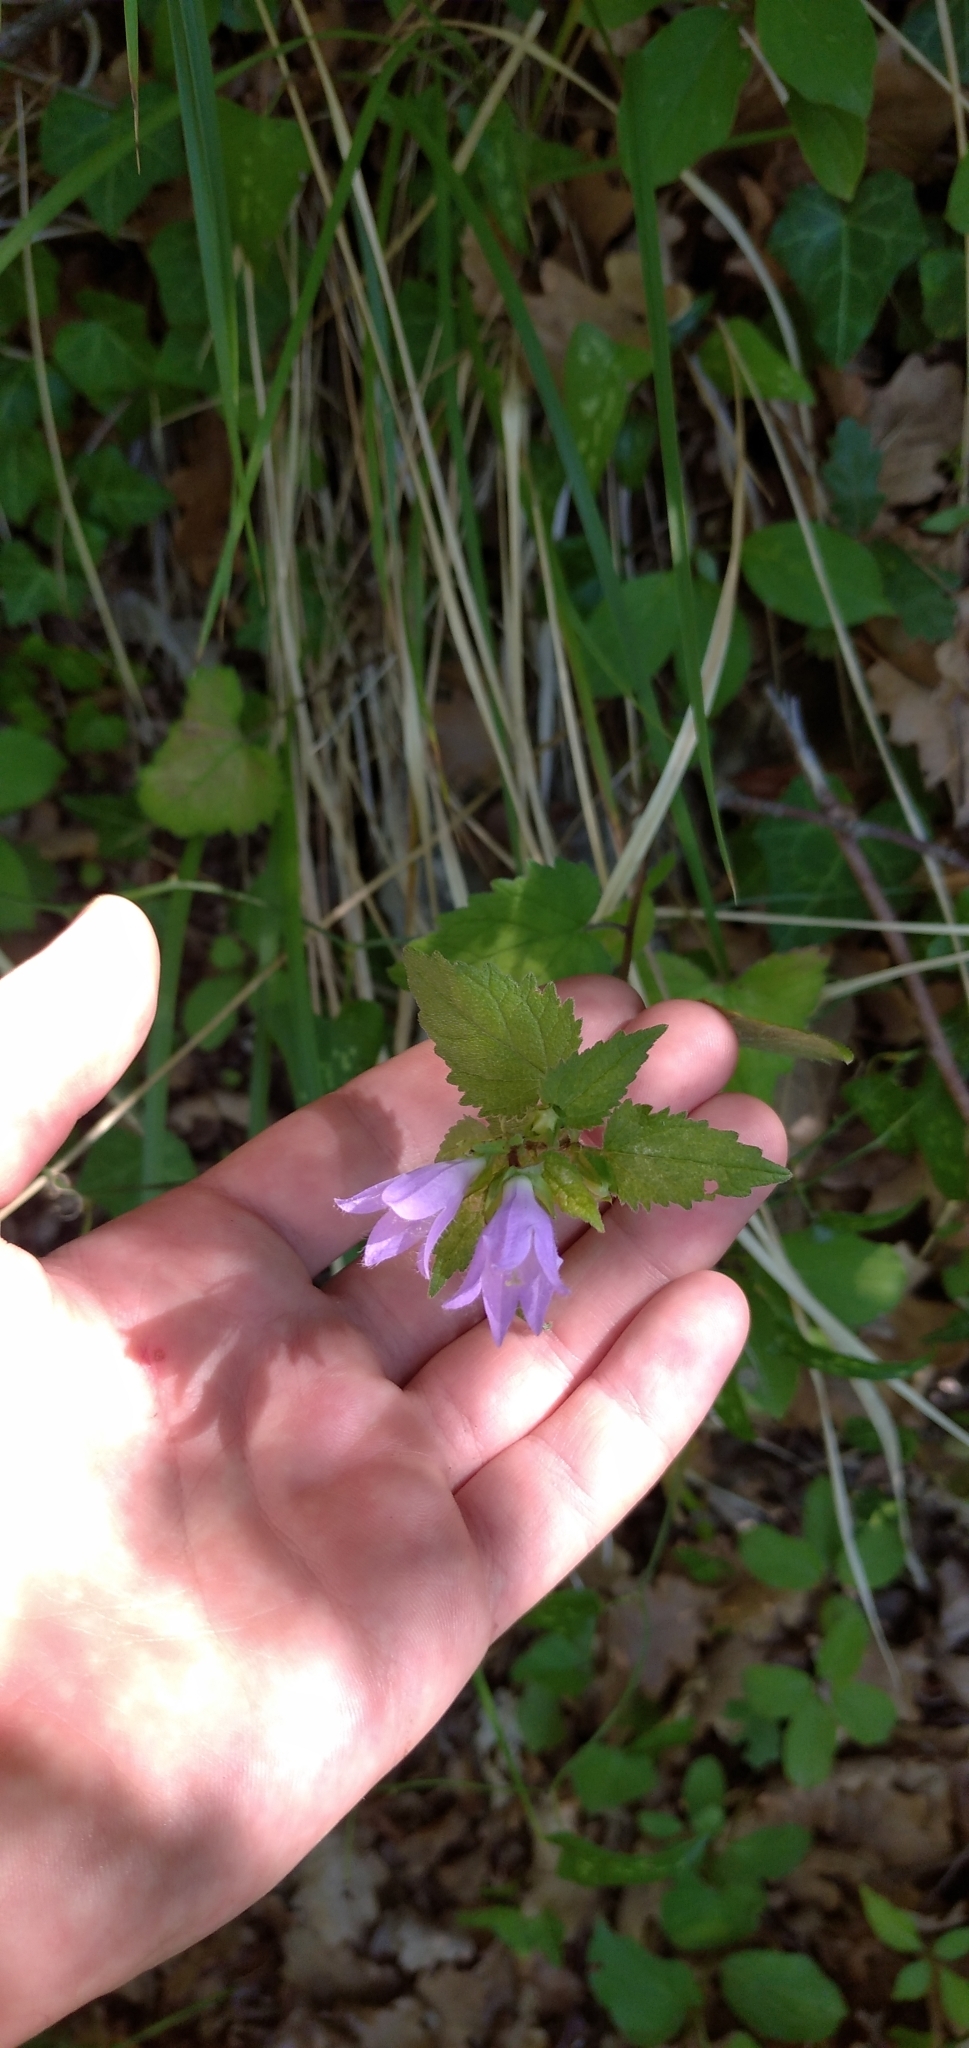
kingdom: Plantae
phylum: Tracheophyta
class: Magnoliopsida
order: Asterales
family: Campanulaceae
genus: Campanula
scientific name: Campanula trachelium
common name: Nettle-leaved bellflower
